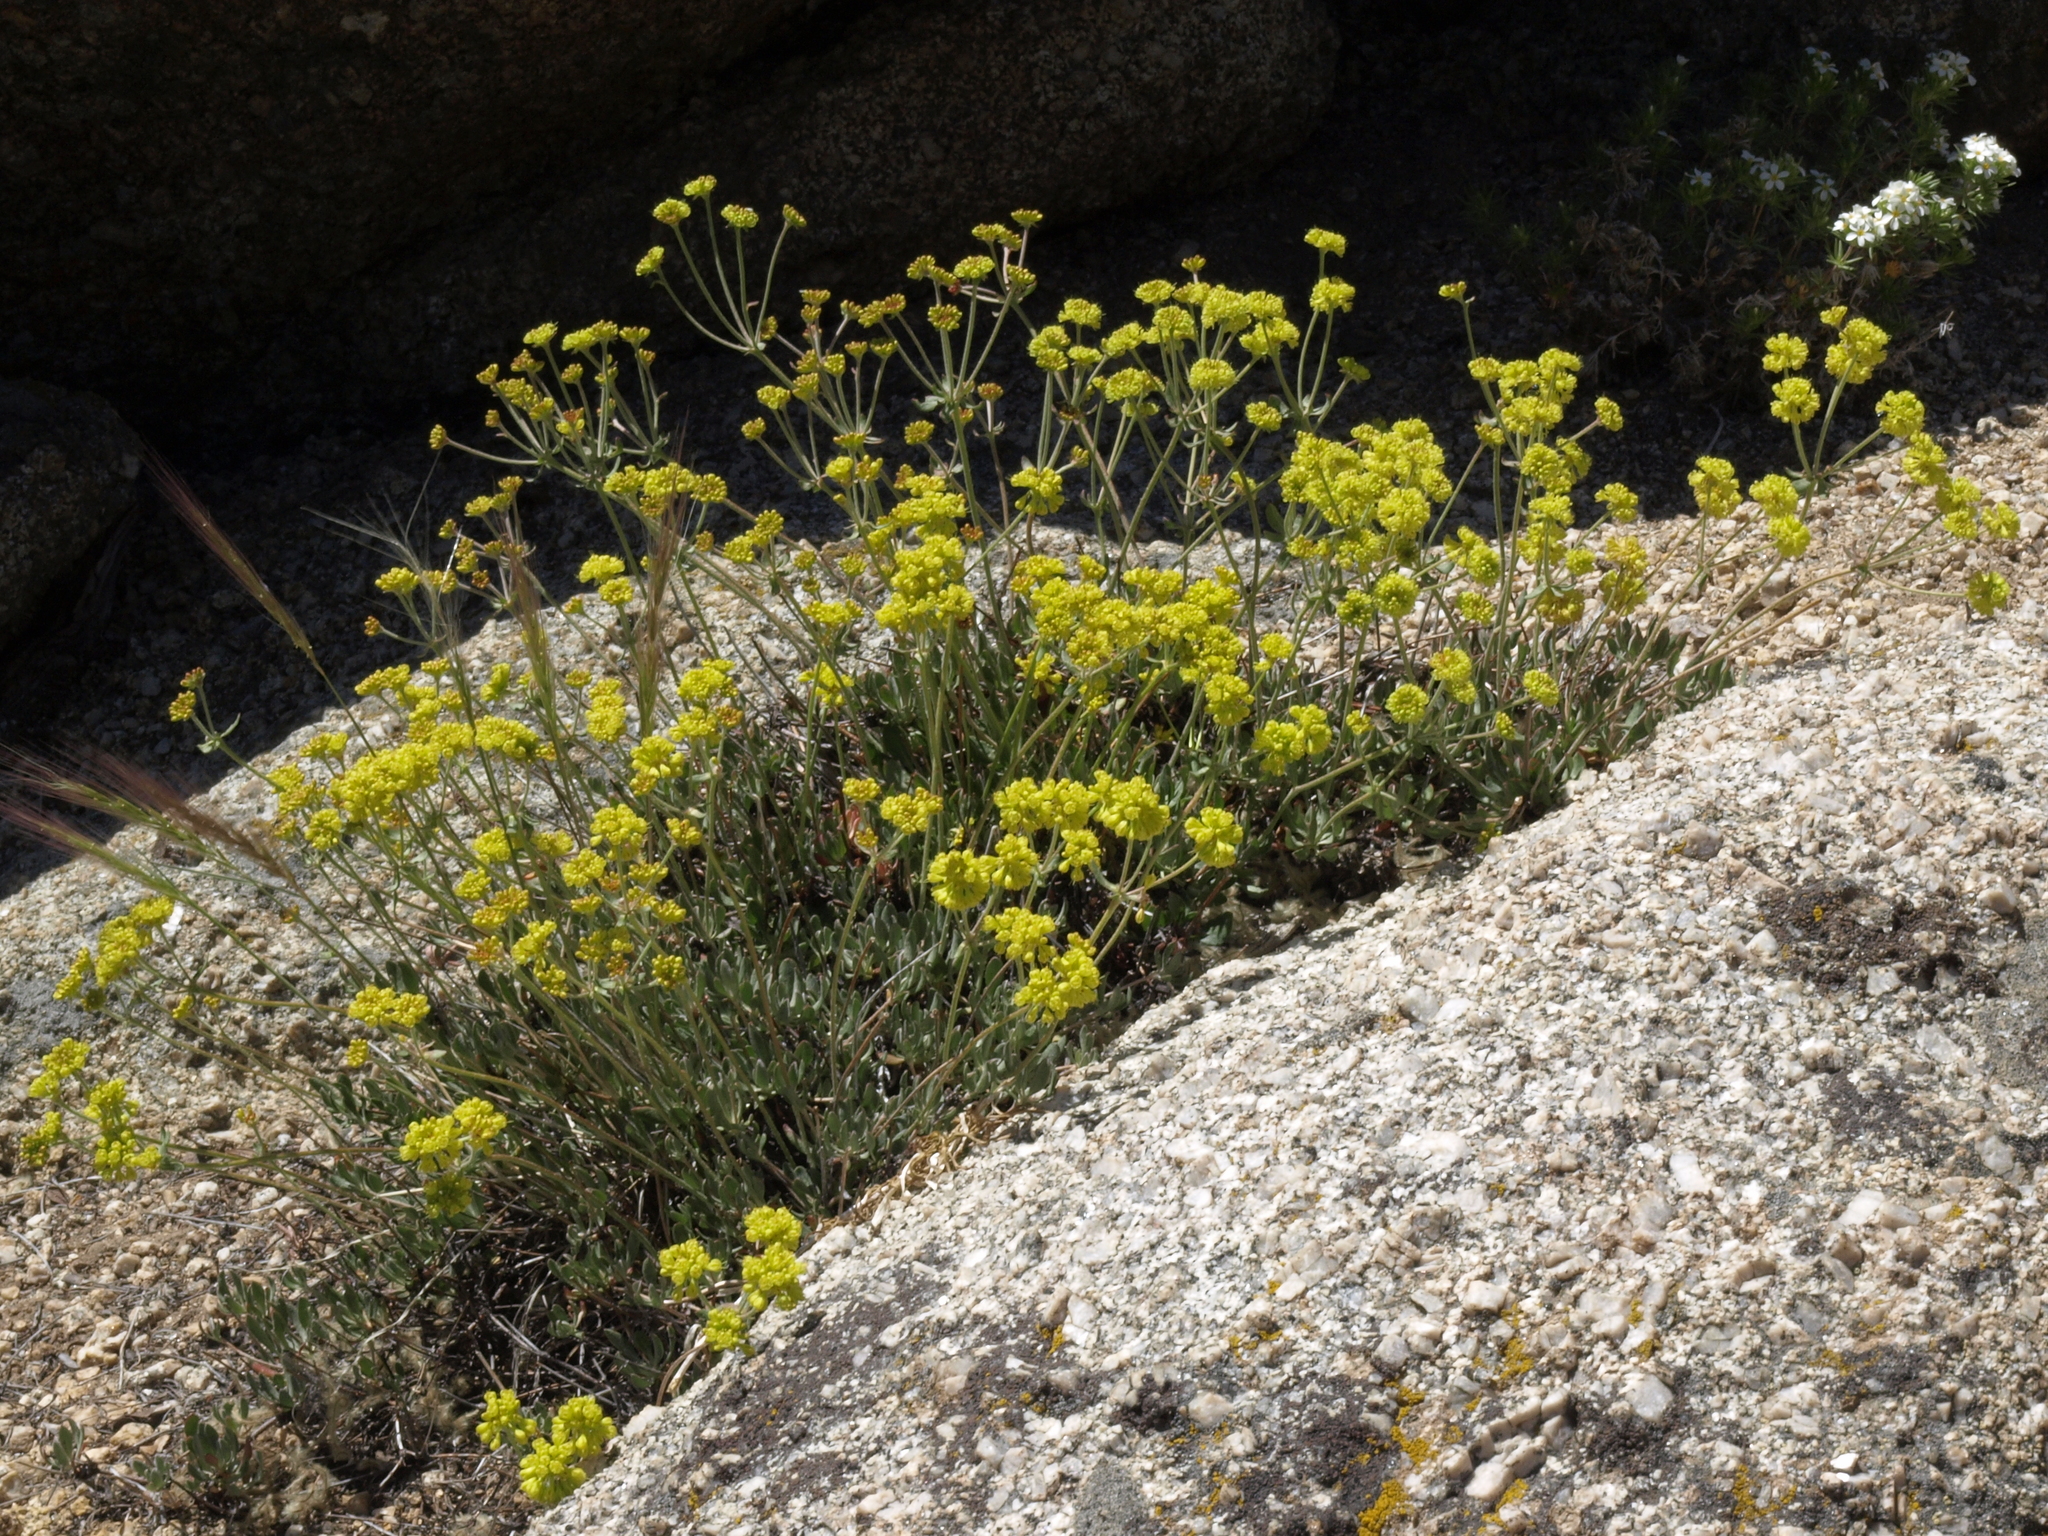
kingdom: Plantae
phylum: Tracheophyta
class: Magnoliopsida
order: Caryophyllales
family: Polygonaceae
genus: Eriogonum
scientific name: Eriogonum umbellatum
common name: Sulfur-buckwheat
